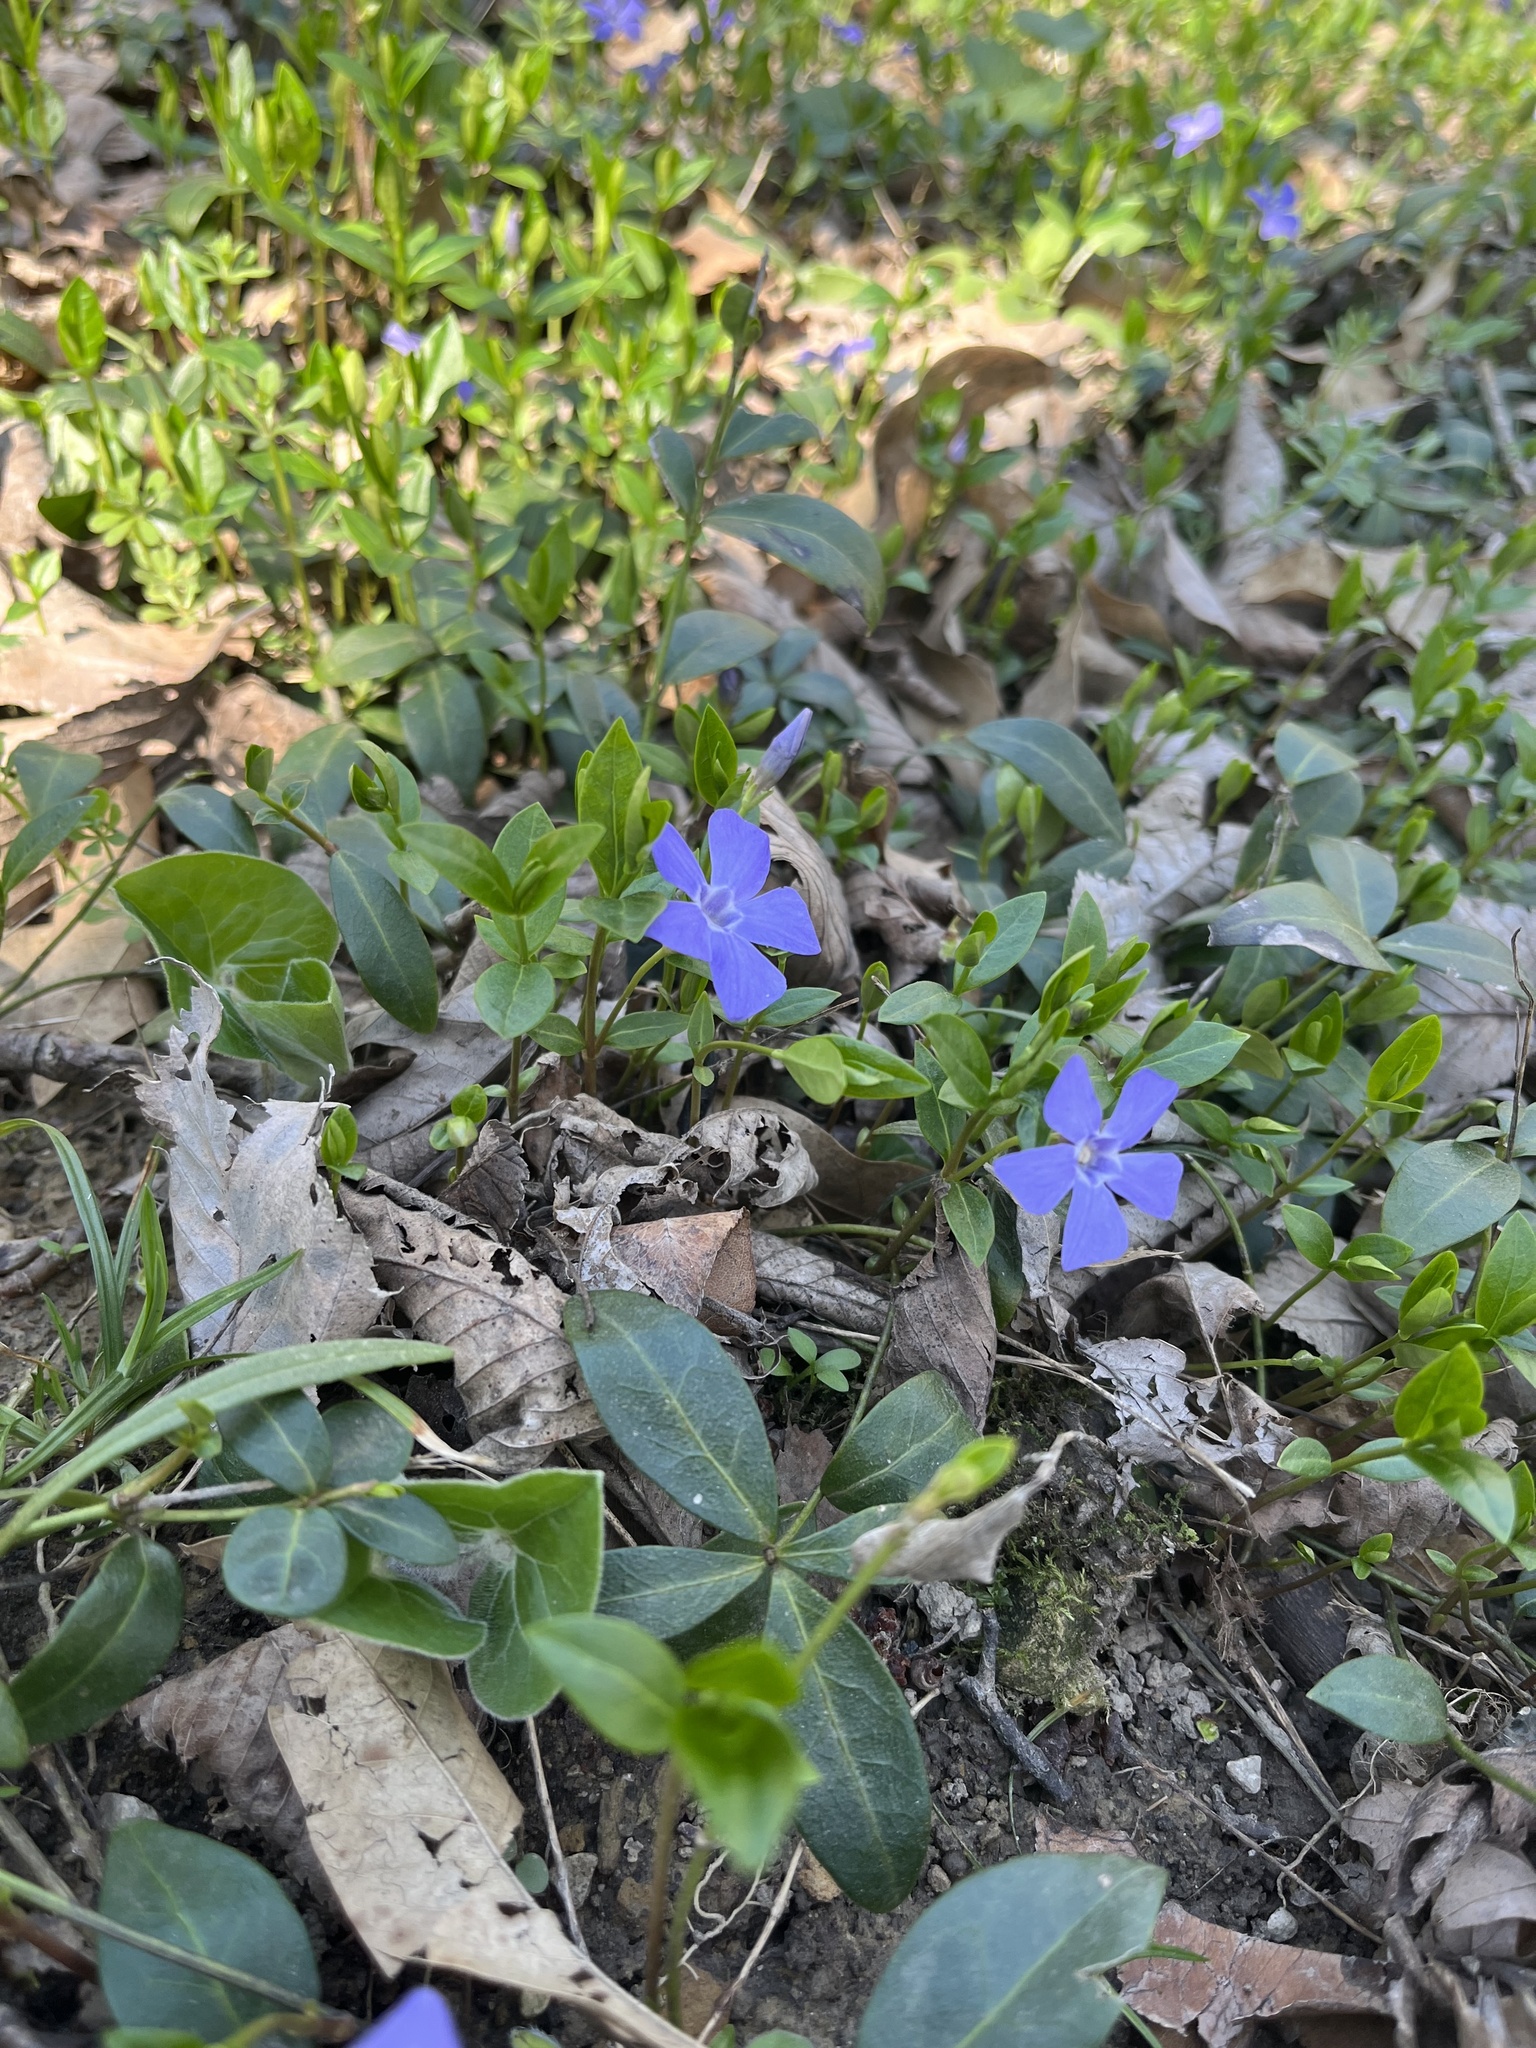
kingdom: Plantae
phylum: Tracheophyta
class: Magnoliopsida
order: Gentianales
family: Apocynaceae
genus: Vinca
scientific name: Vinca minor
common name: Lesser periwinkle
